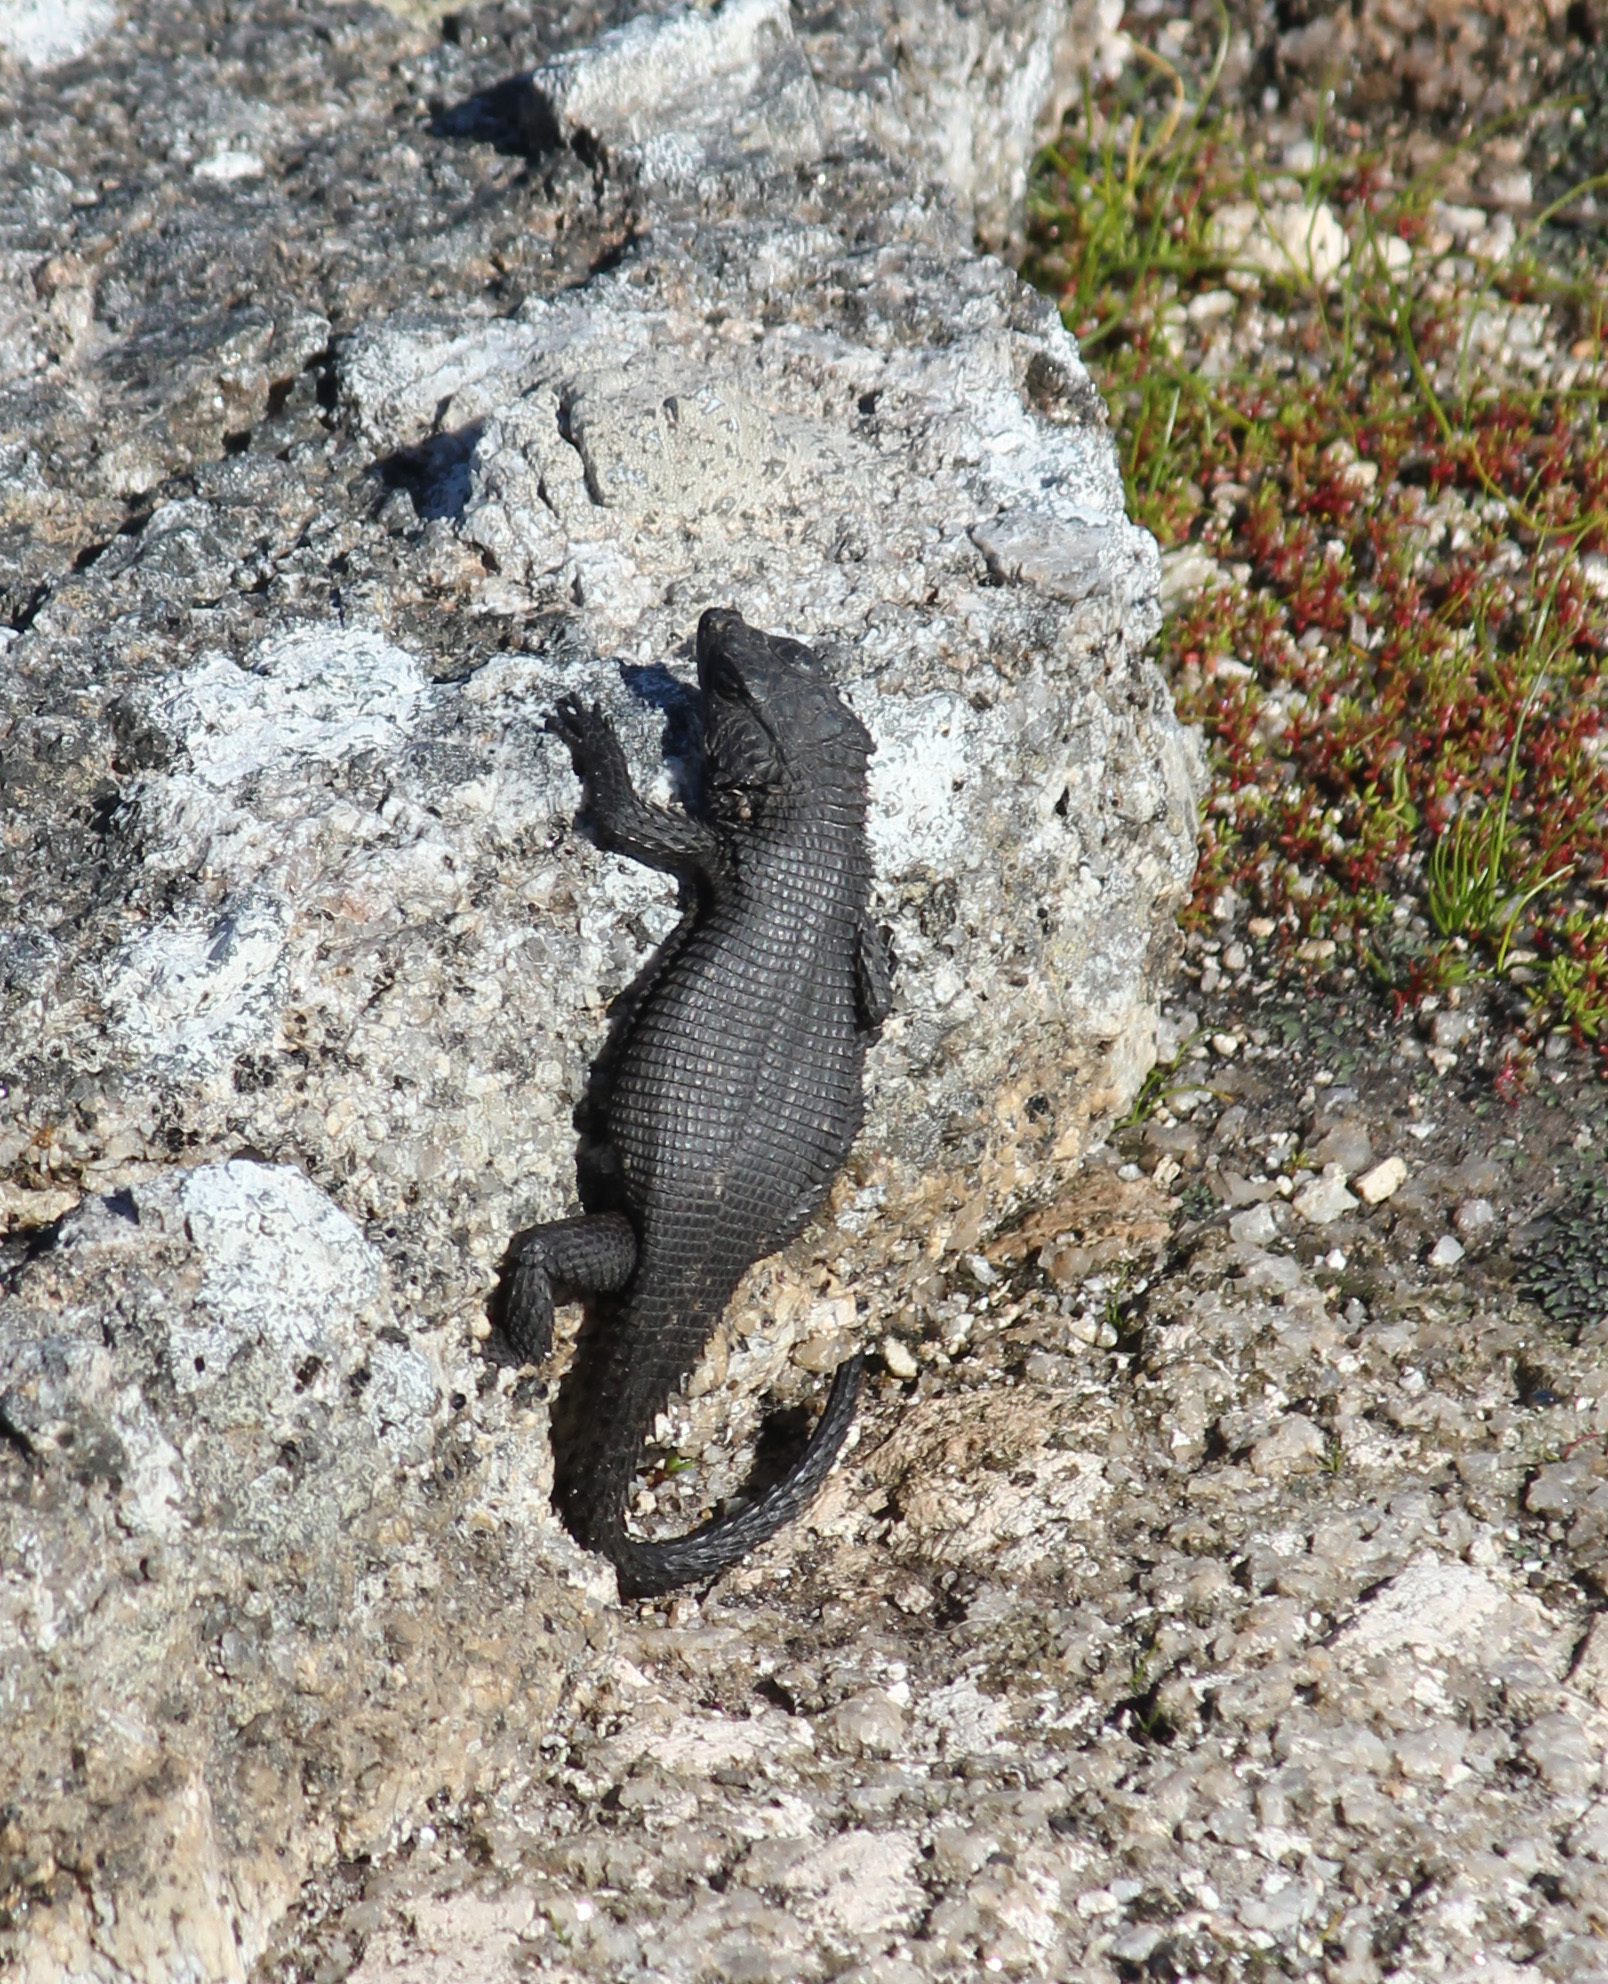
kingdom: Animalia
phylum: Chordata
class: Squamata
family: Cordylidae
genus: Karusasaurus
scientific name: Karusasaurus polyzonus
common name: Karoo girdled lizard
